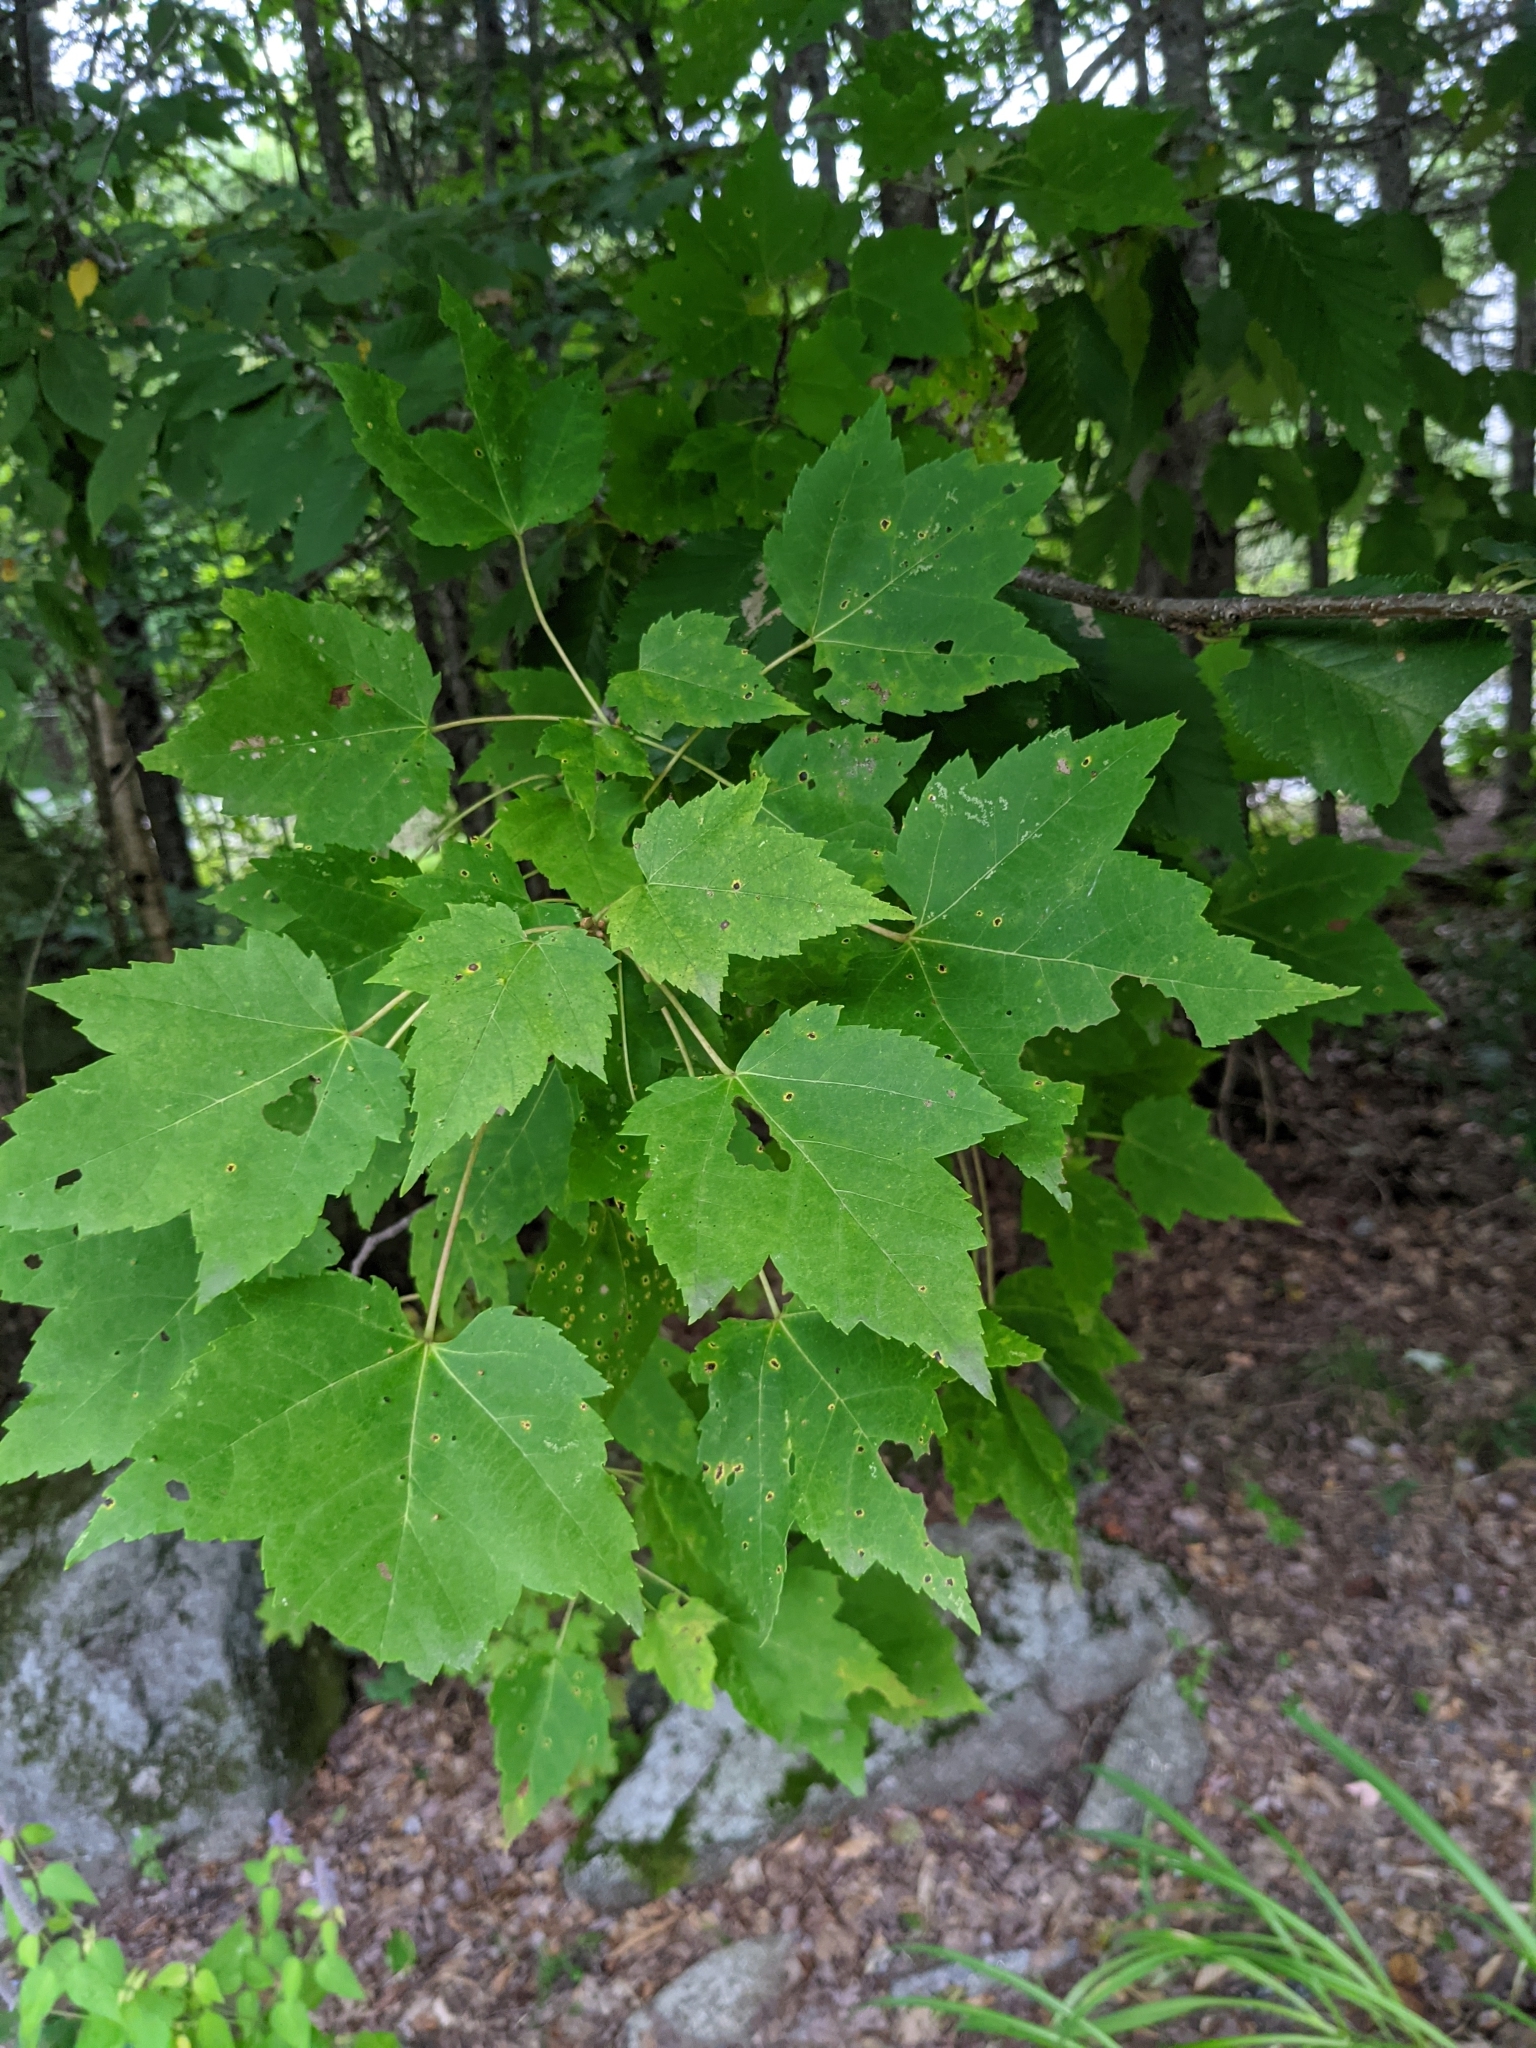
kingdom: Plantae
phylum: Tracheophyta
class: Magnoliopsida
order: Sapindales
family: Sapindaceae
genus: Acer
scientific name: Acer rubrum
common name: Red maple
